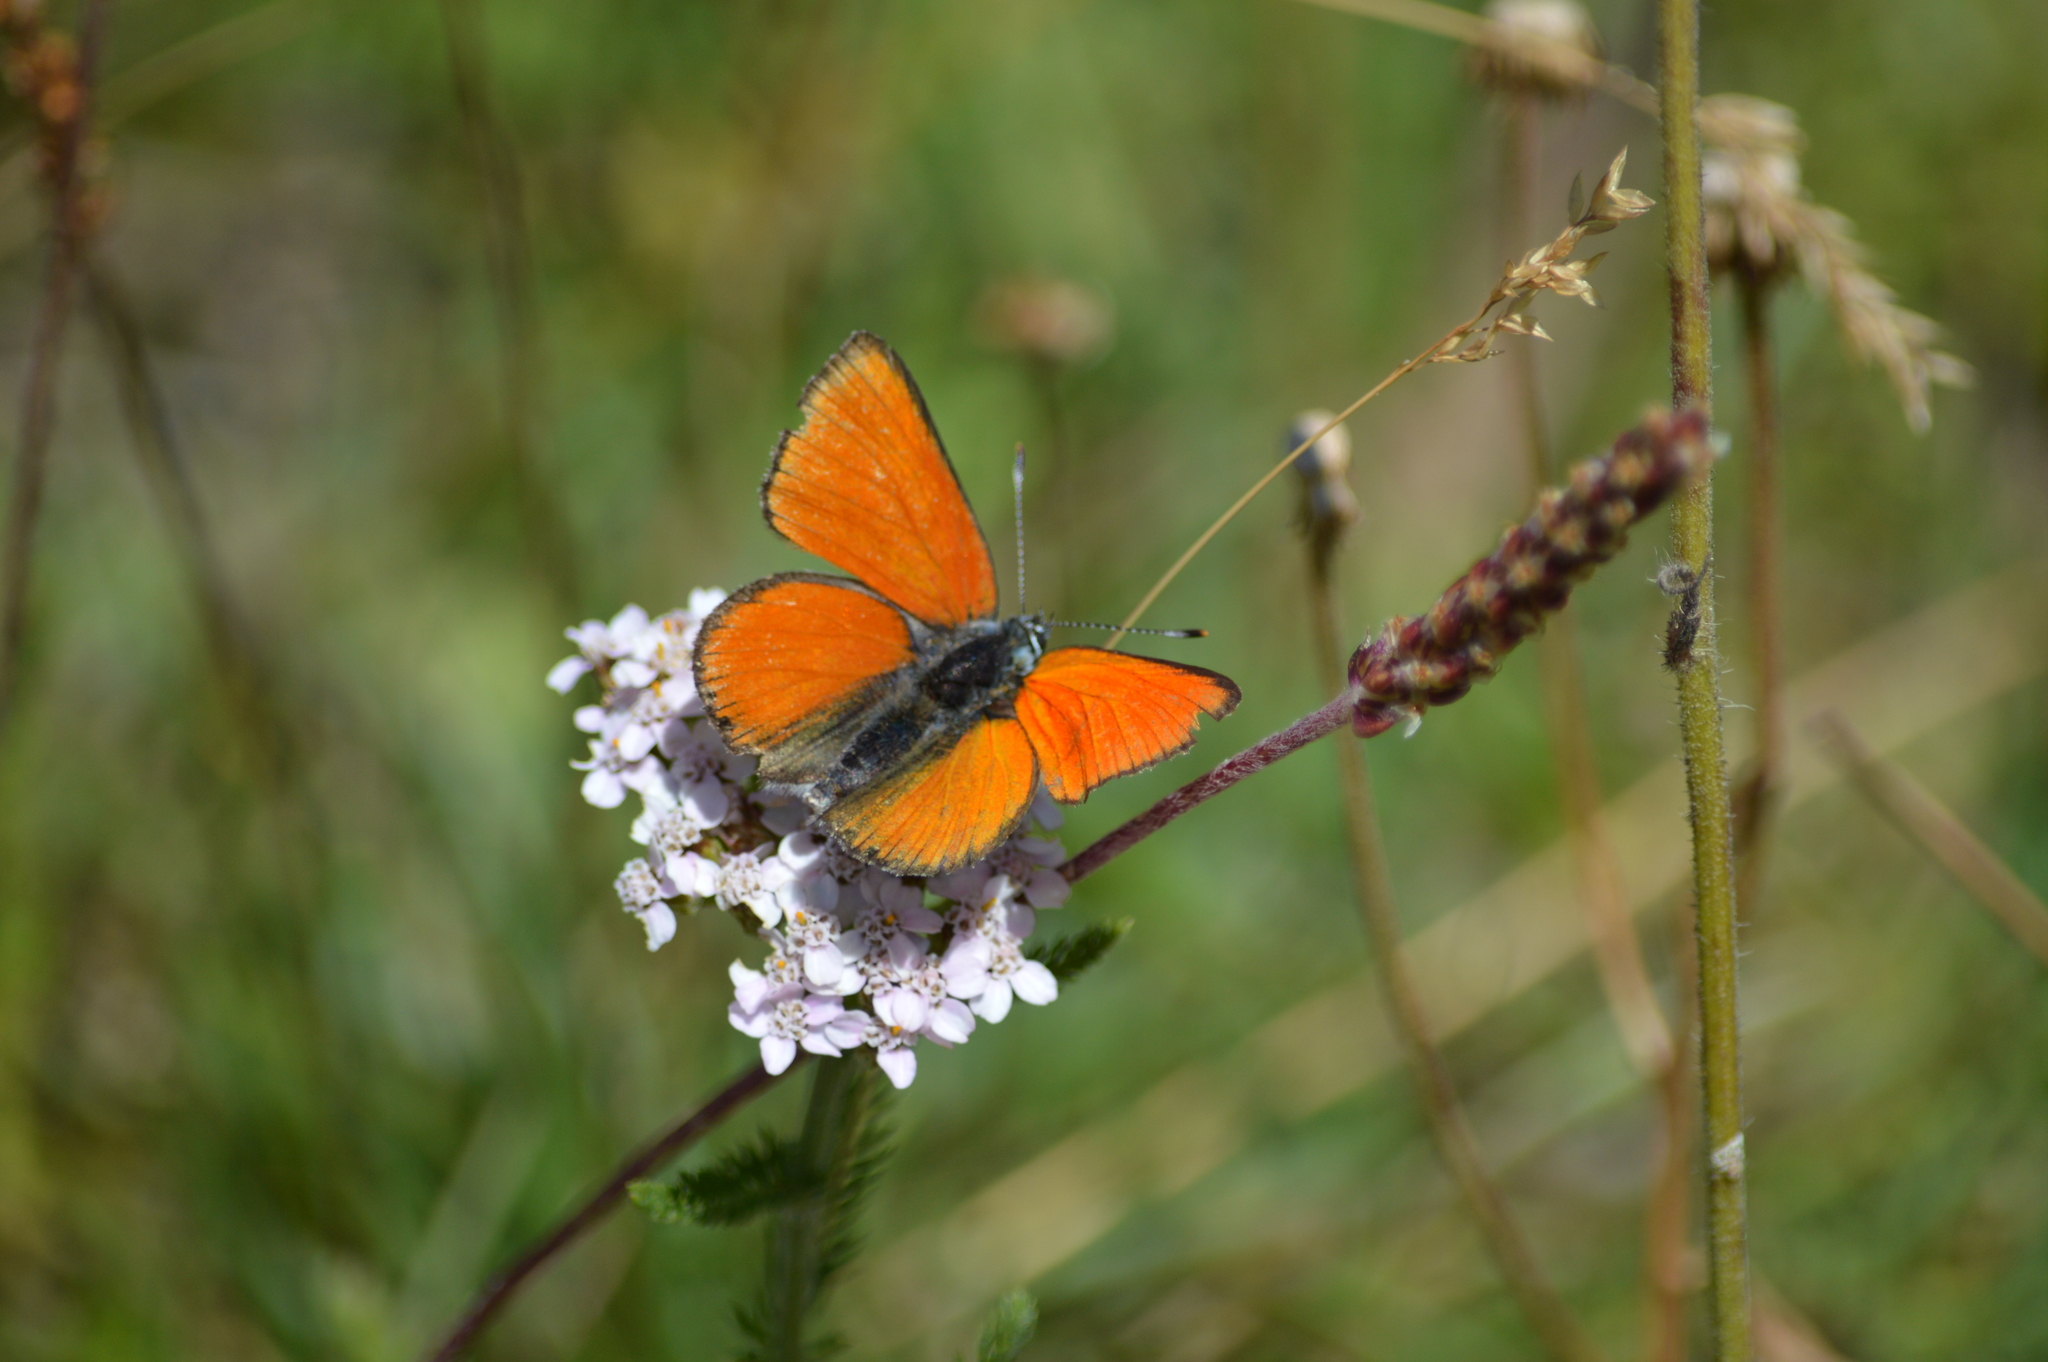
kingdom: Animalia
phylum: Arthropoda
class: Insecta
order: Lepidoptera
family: Lycaenidae
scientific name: Lycaenidae
